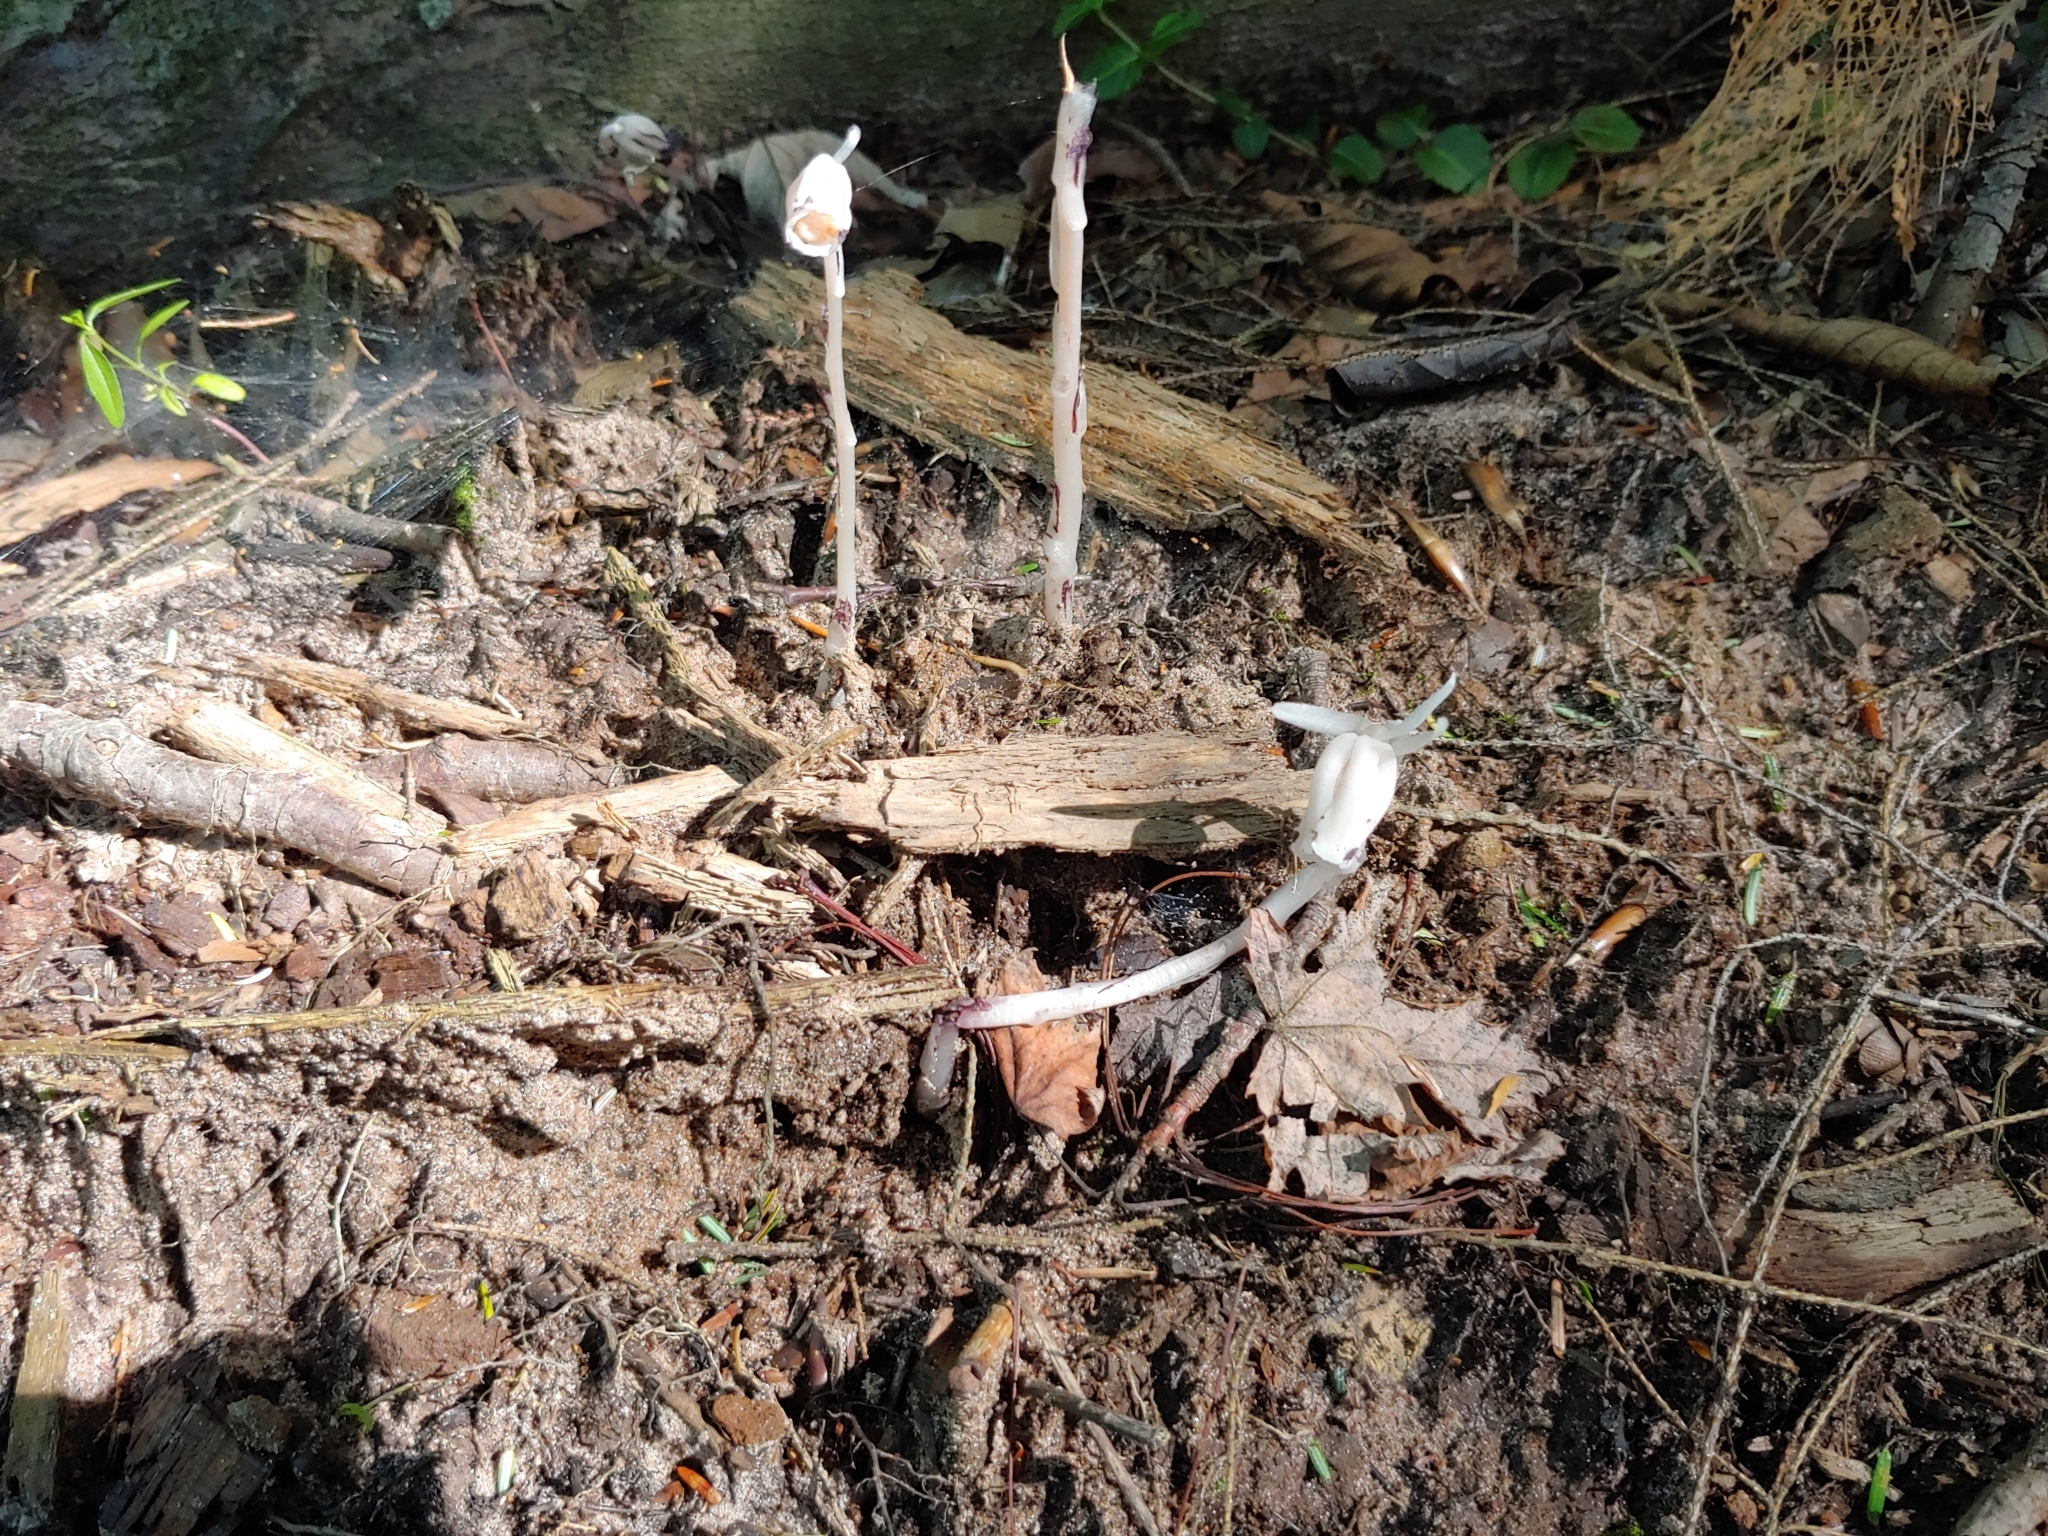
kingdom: Plantae
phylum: Tracheophyta
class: Magnoliopsida
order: Ericales
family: Ericaceae
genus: Monotropa
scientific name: Monotropa uniflora
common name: Convulsion root
